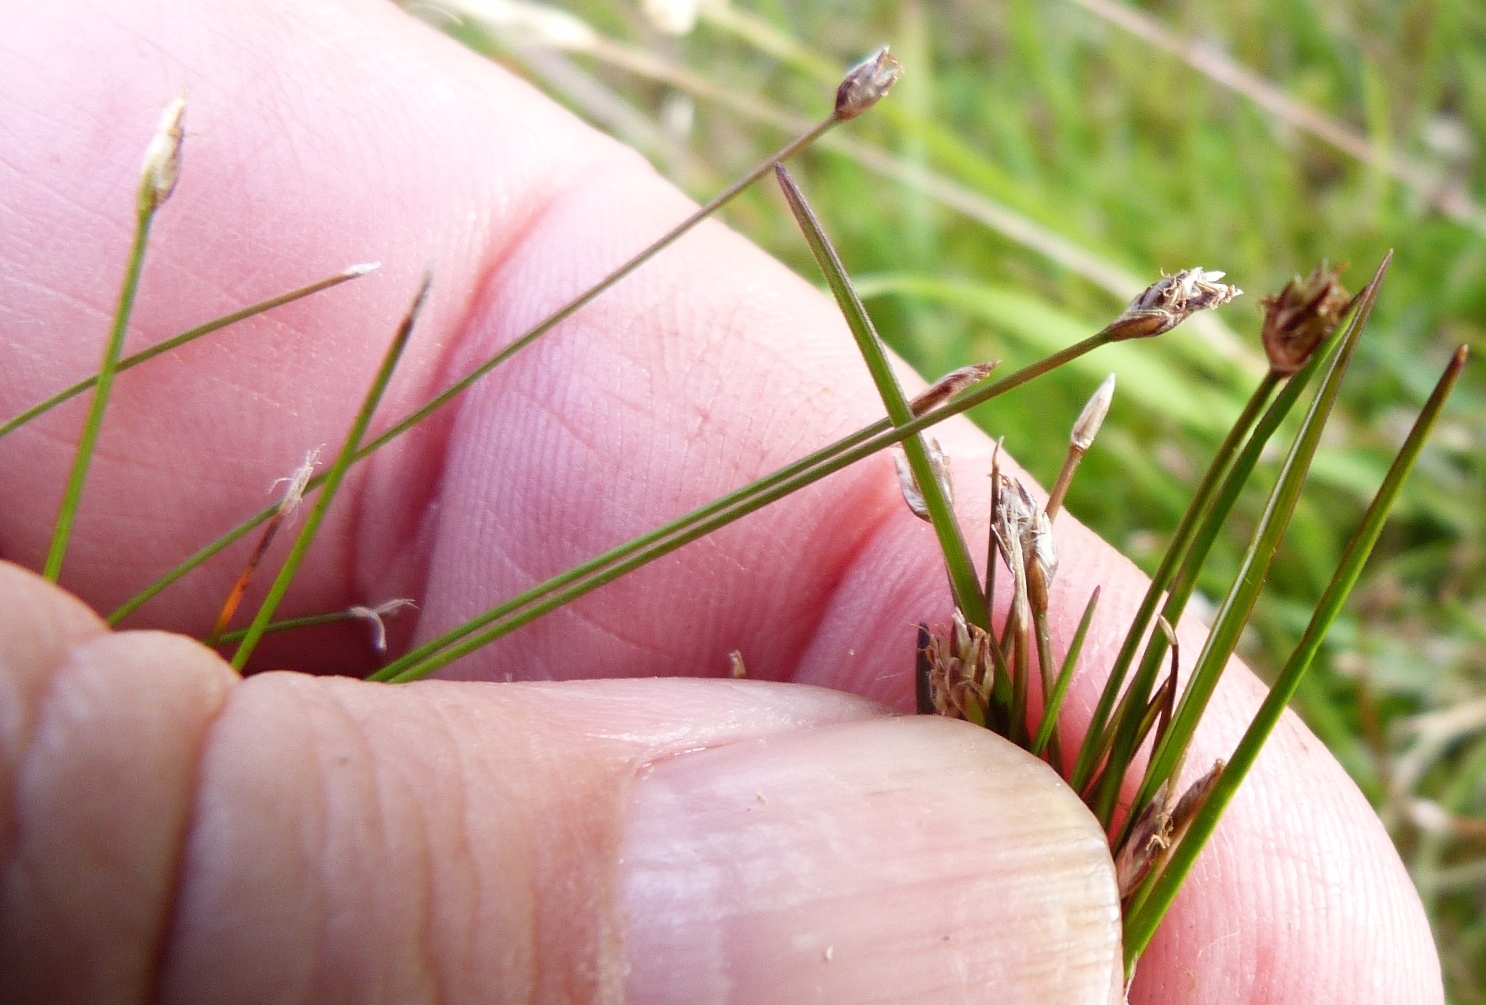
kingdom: Plantae
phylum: Tracheophyta
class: Liliopsida
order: Poales
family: Cyperaceae
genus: Eleocharis
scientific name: Eleocharis gracilis
